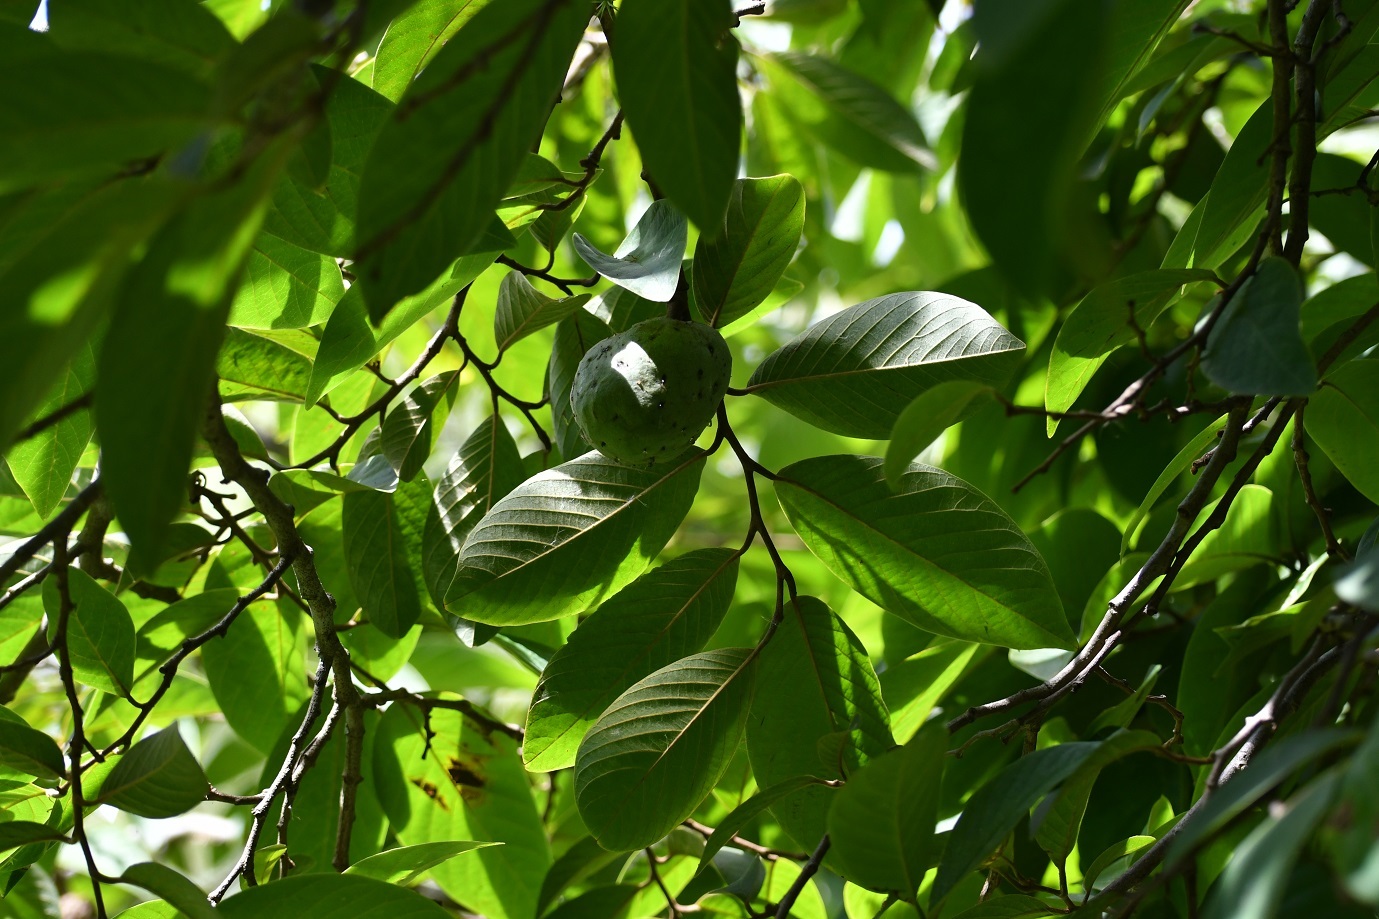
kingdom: Plantae
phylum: Tracheophyta
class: Magnoliopsida
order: Magnoliales
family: Annonaceae
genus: Annona
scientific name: Annona cherimola
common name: Cherimoya
